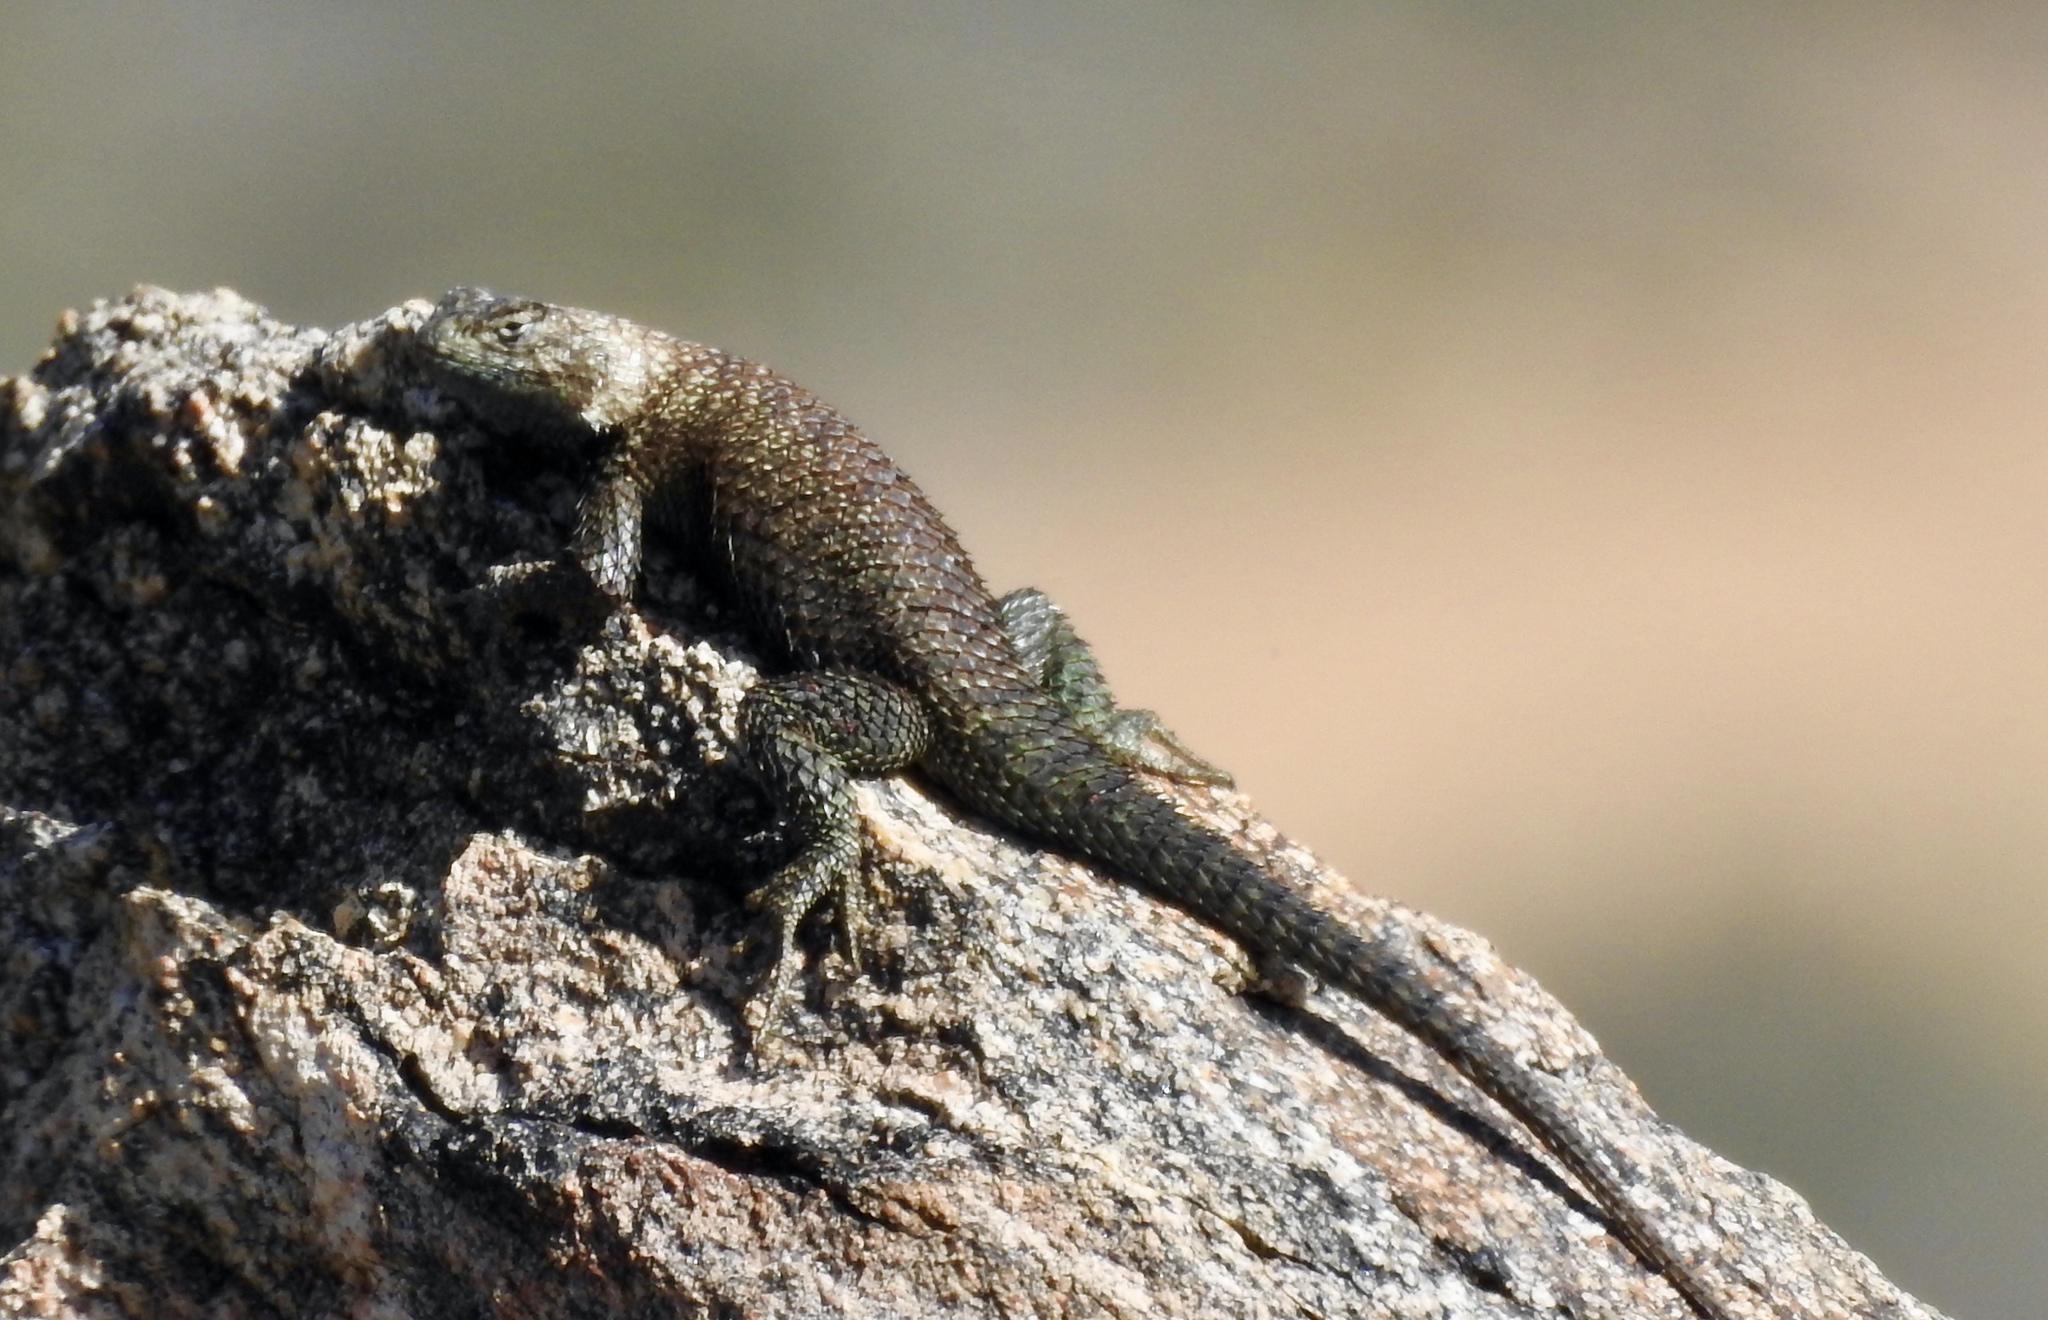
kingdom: Animalia
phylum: Chordata
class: Squamata
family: Phrynosomatidae
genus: Sceloporus
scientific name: Sceloporus orcutti
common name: Granite spiny lizard
